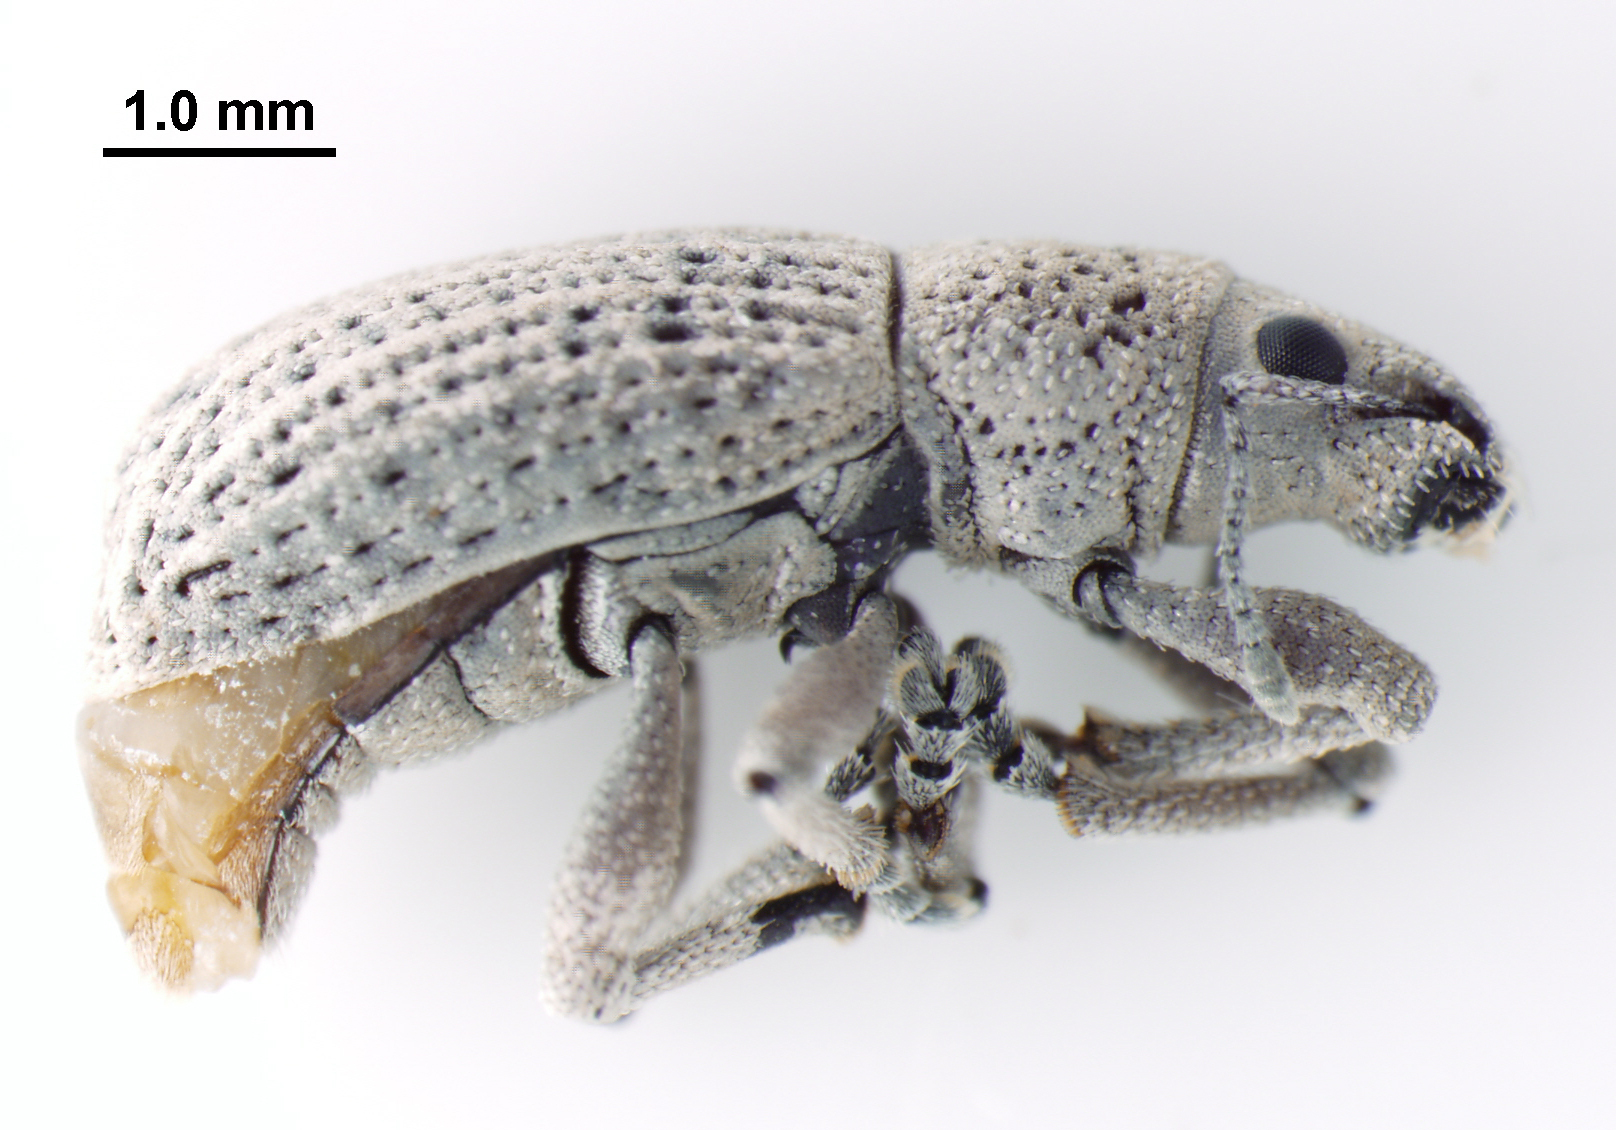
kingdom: Animalia
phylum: Arthropoda
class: Insecta
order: Coleoptera
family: Curculionidae
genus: Artipus
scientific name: Artipus floridanus
